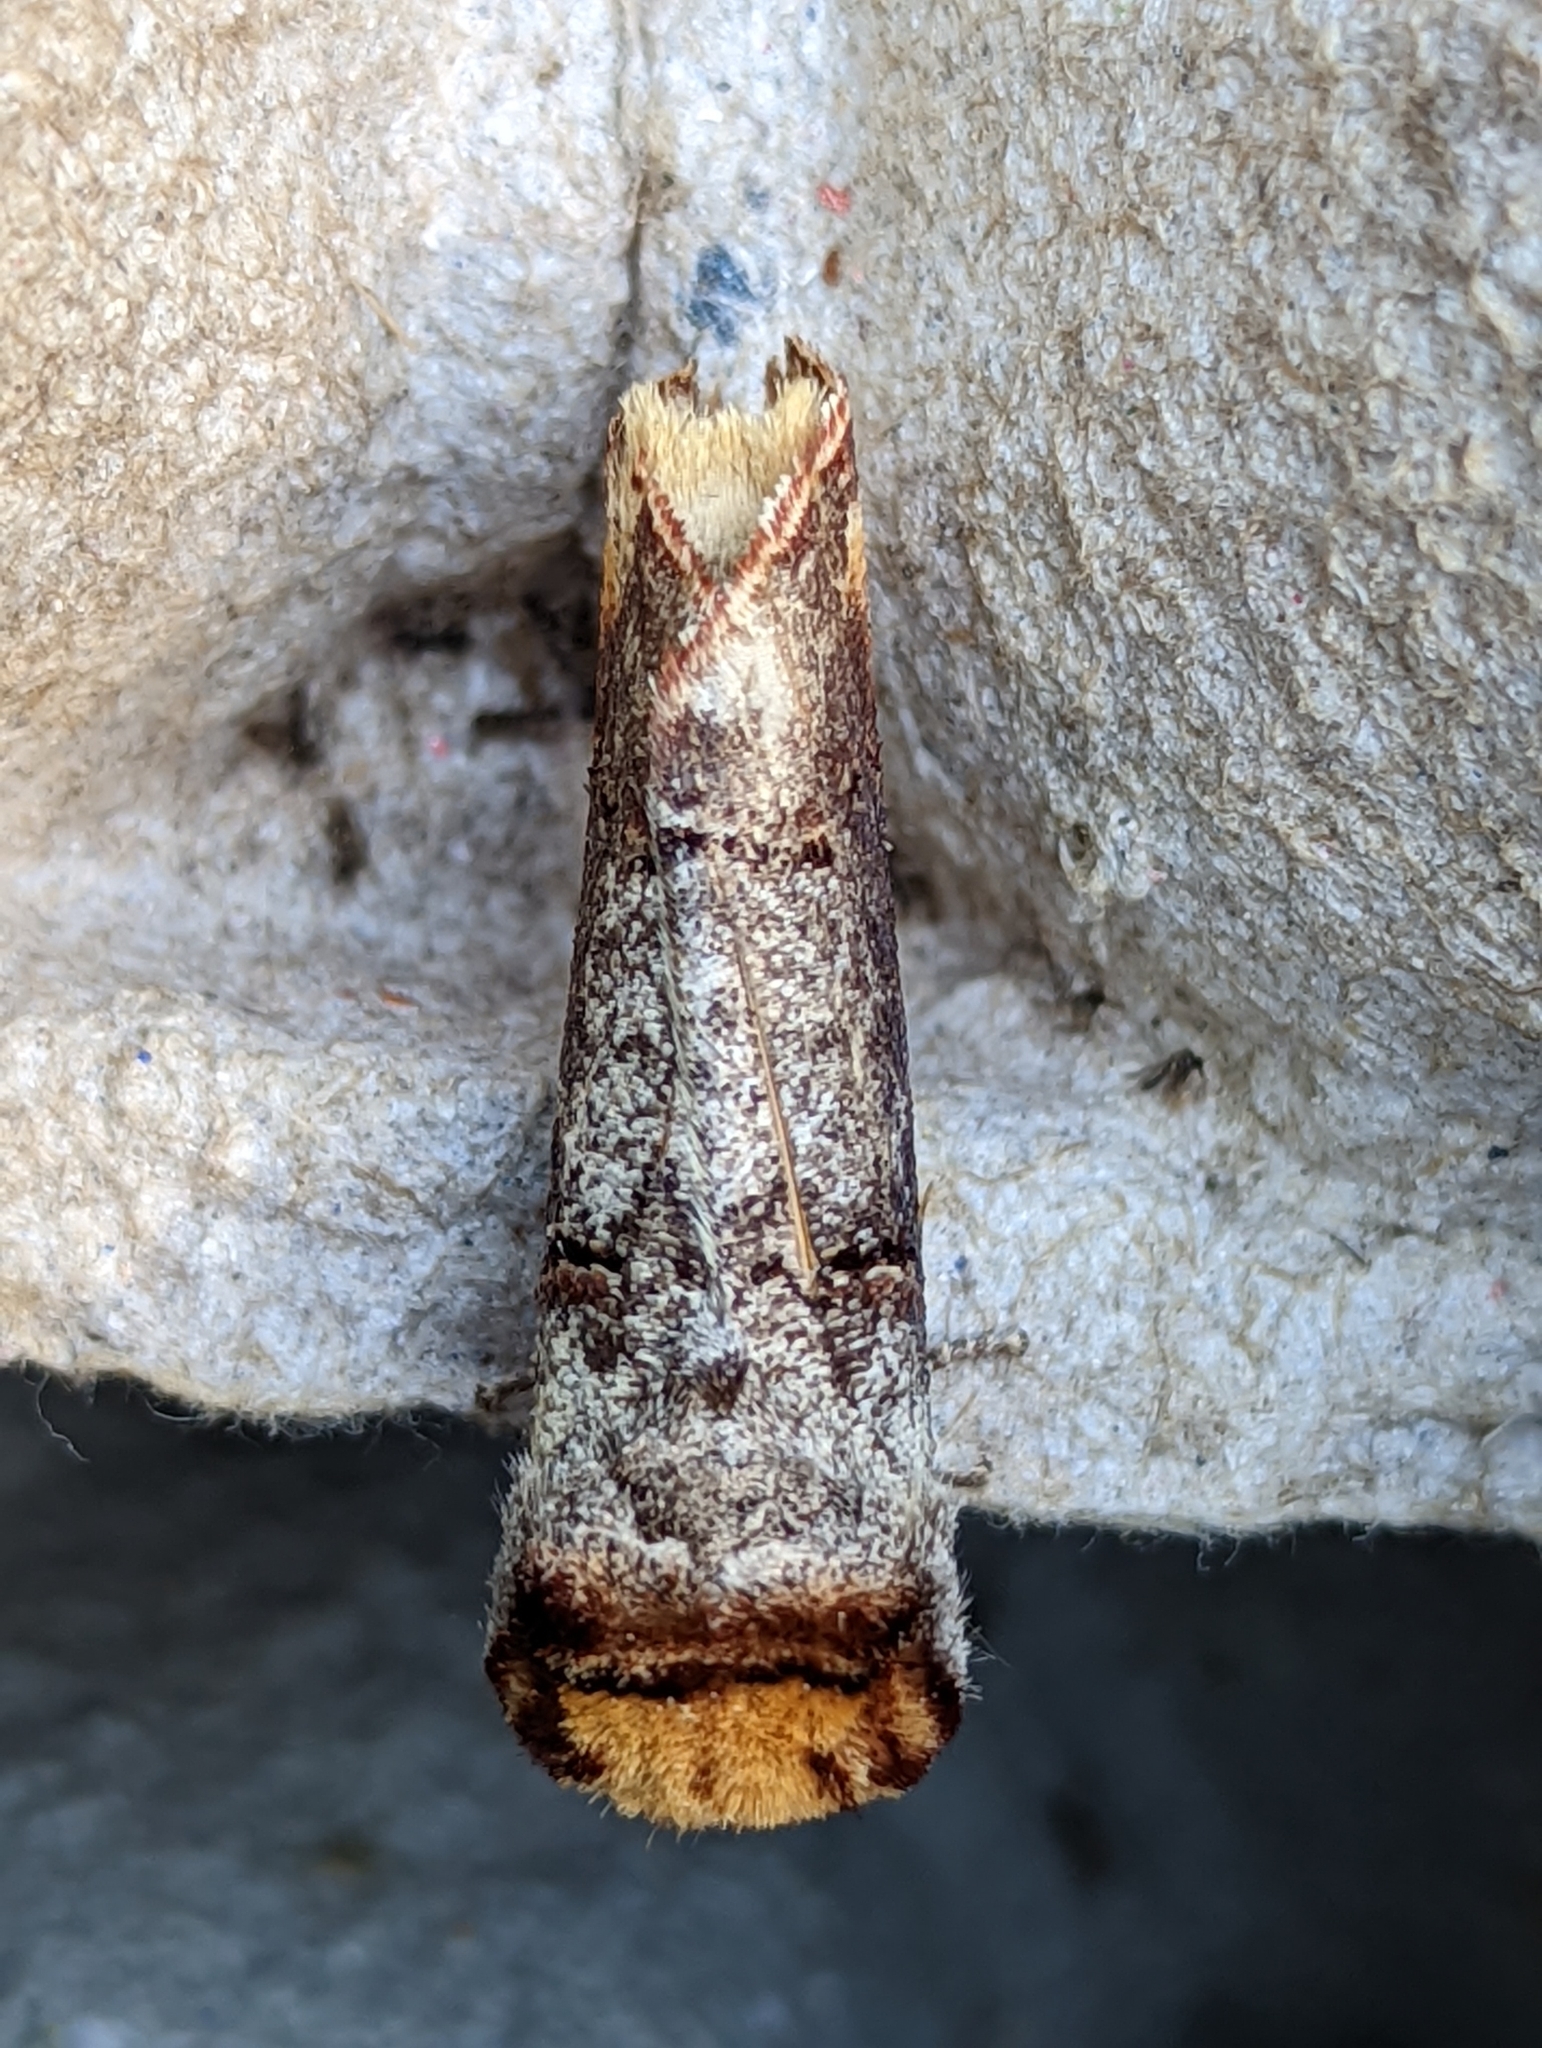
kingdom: Animalia
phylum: Arthropoda
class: Insecta
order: Lepidoptera
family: Notodontidae
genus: Phalera
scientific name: Phalera bucephala
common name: Buff-tip
